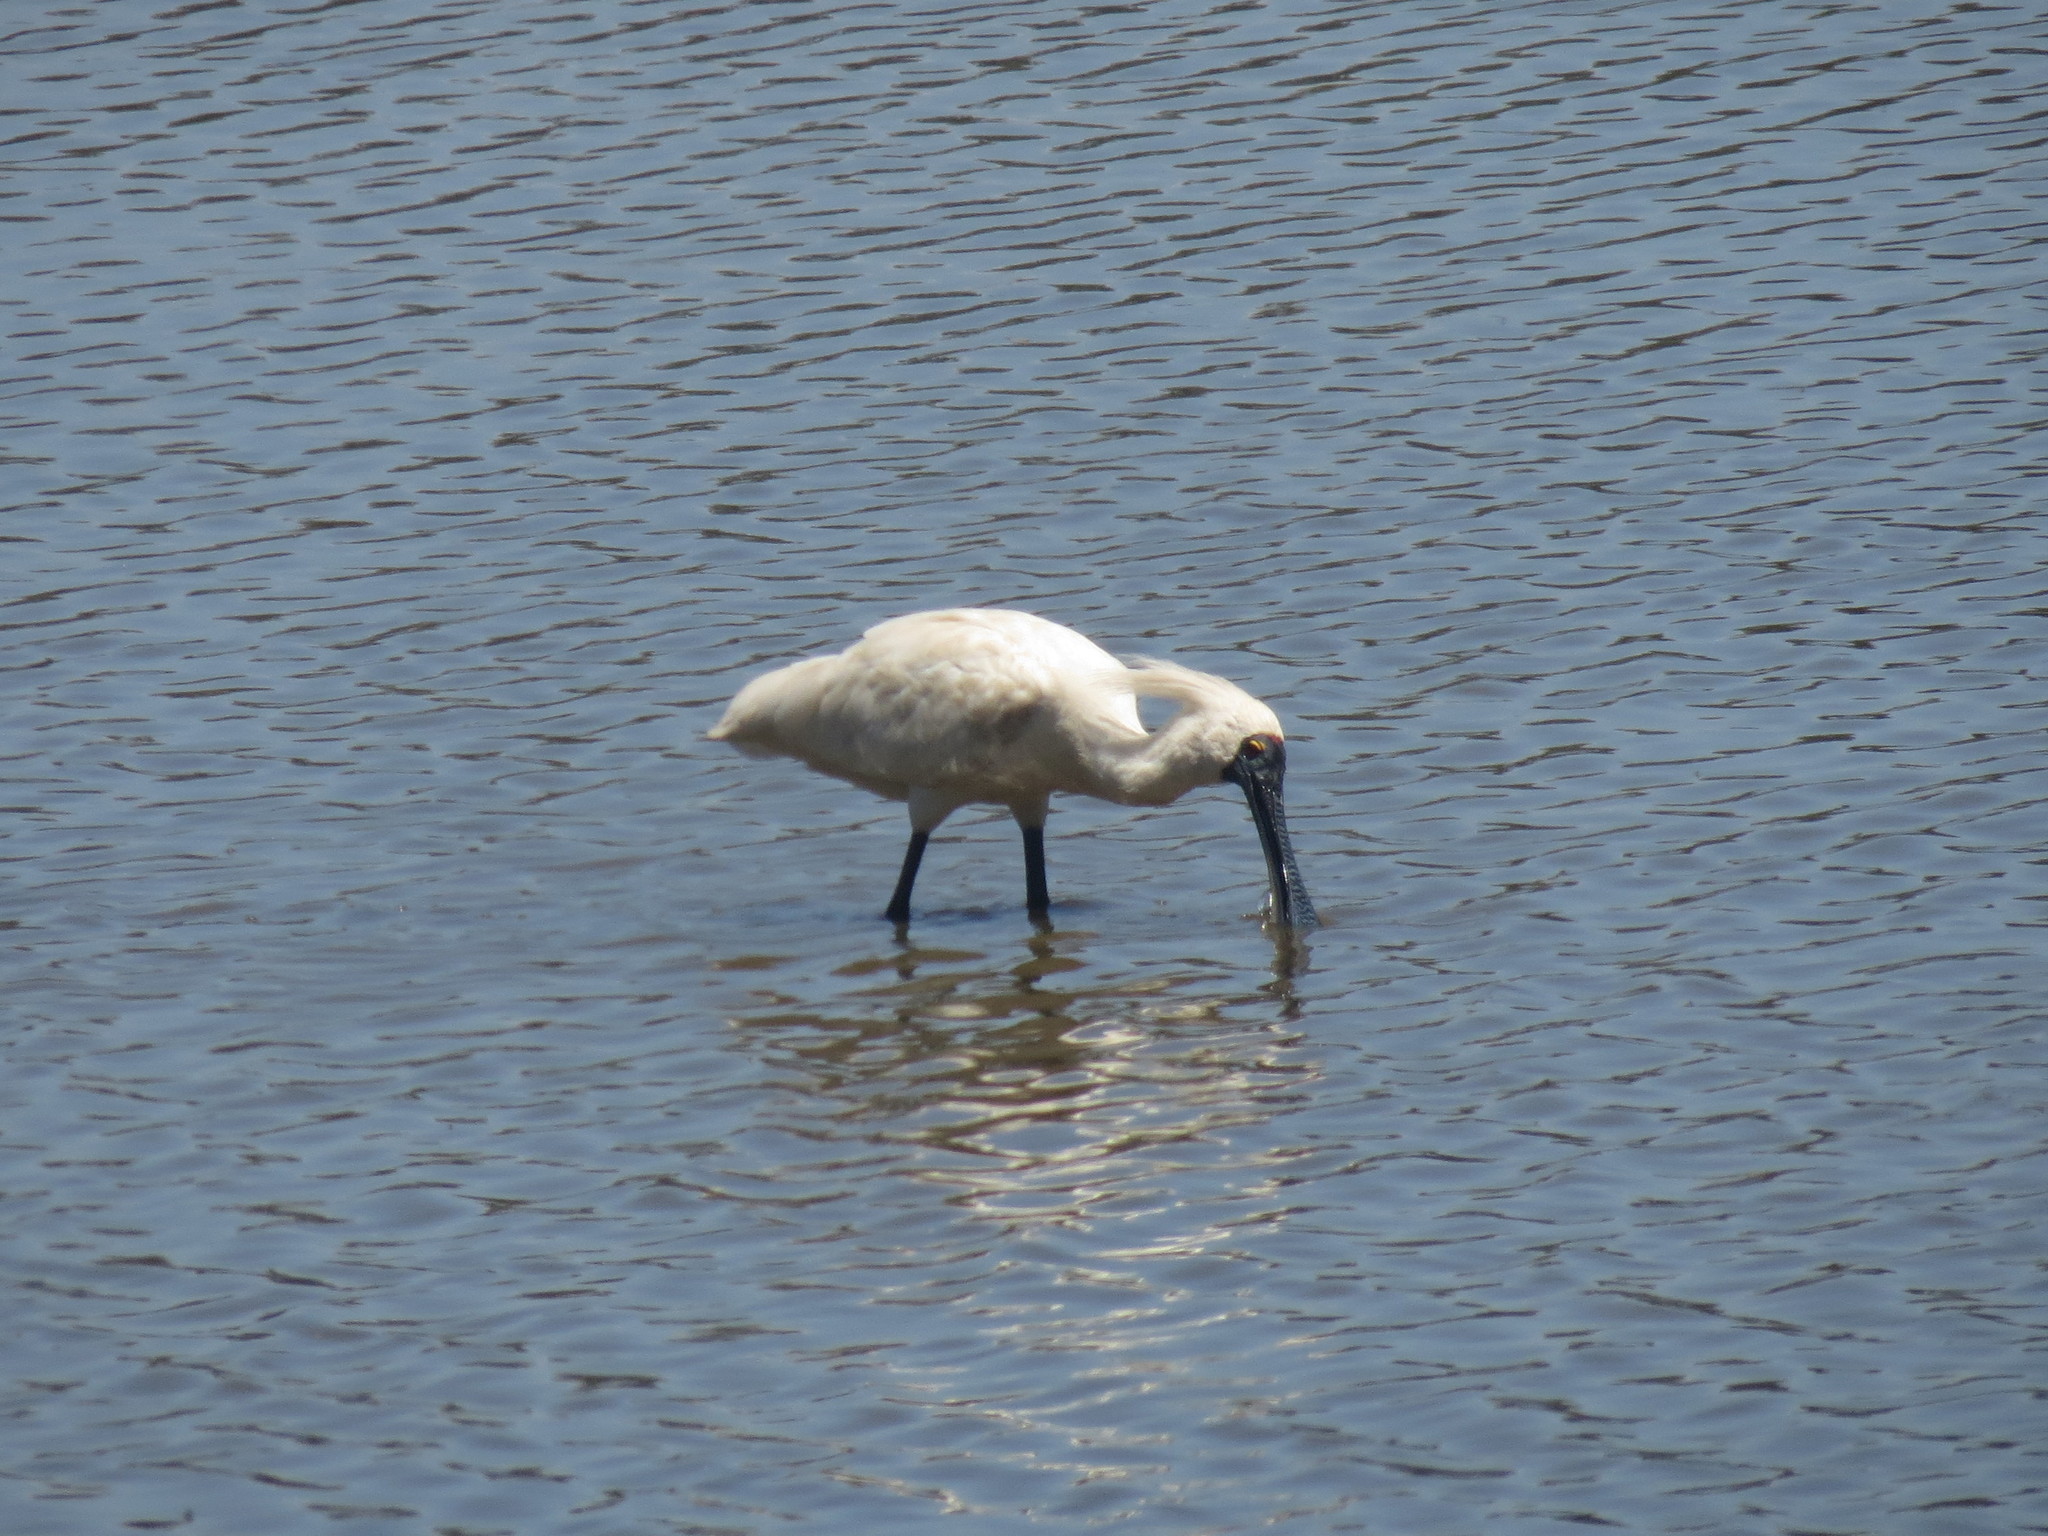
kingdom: Animalia
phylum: Chordata
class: Aves
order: Pelecaniformes
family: Threskiornithidae
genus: Platalea
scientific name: Platalea regia
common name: Royal spoonbill
